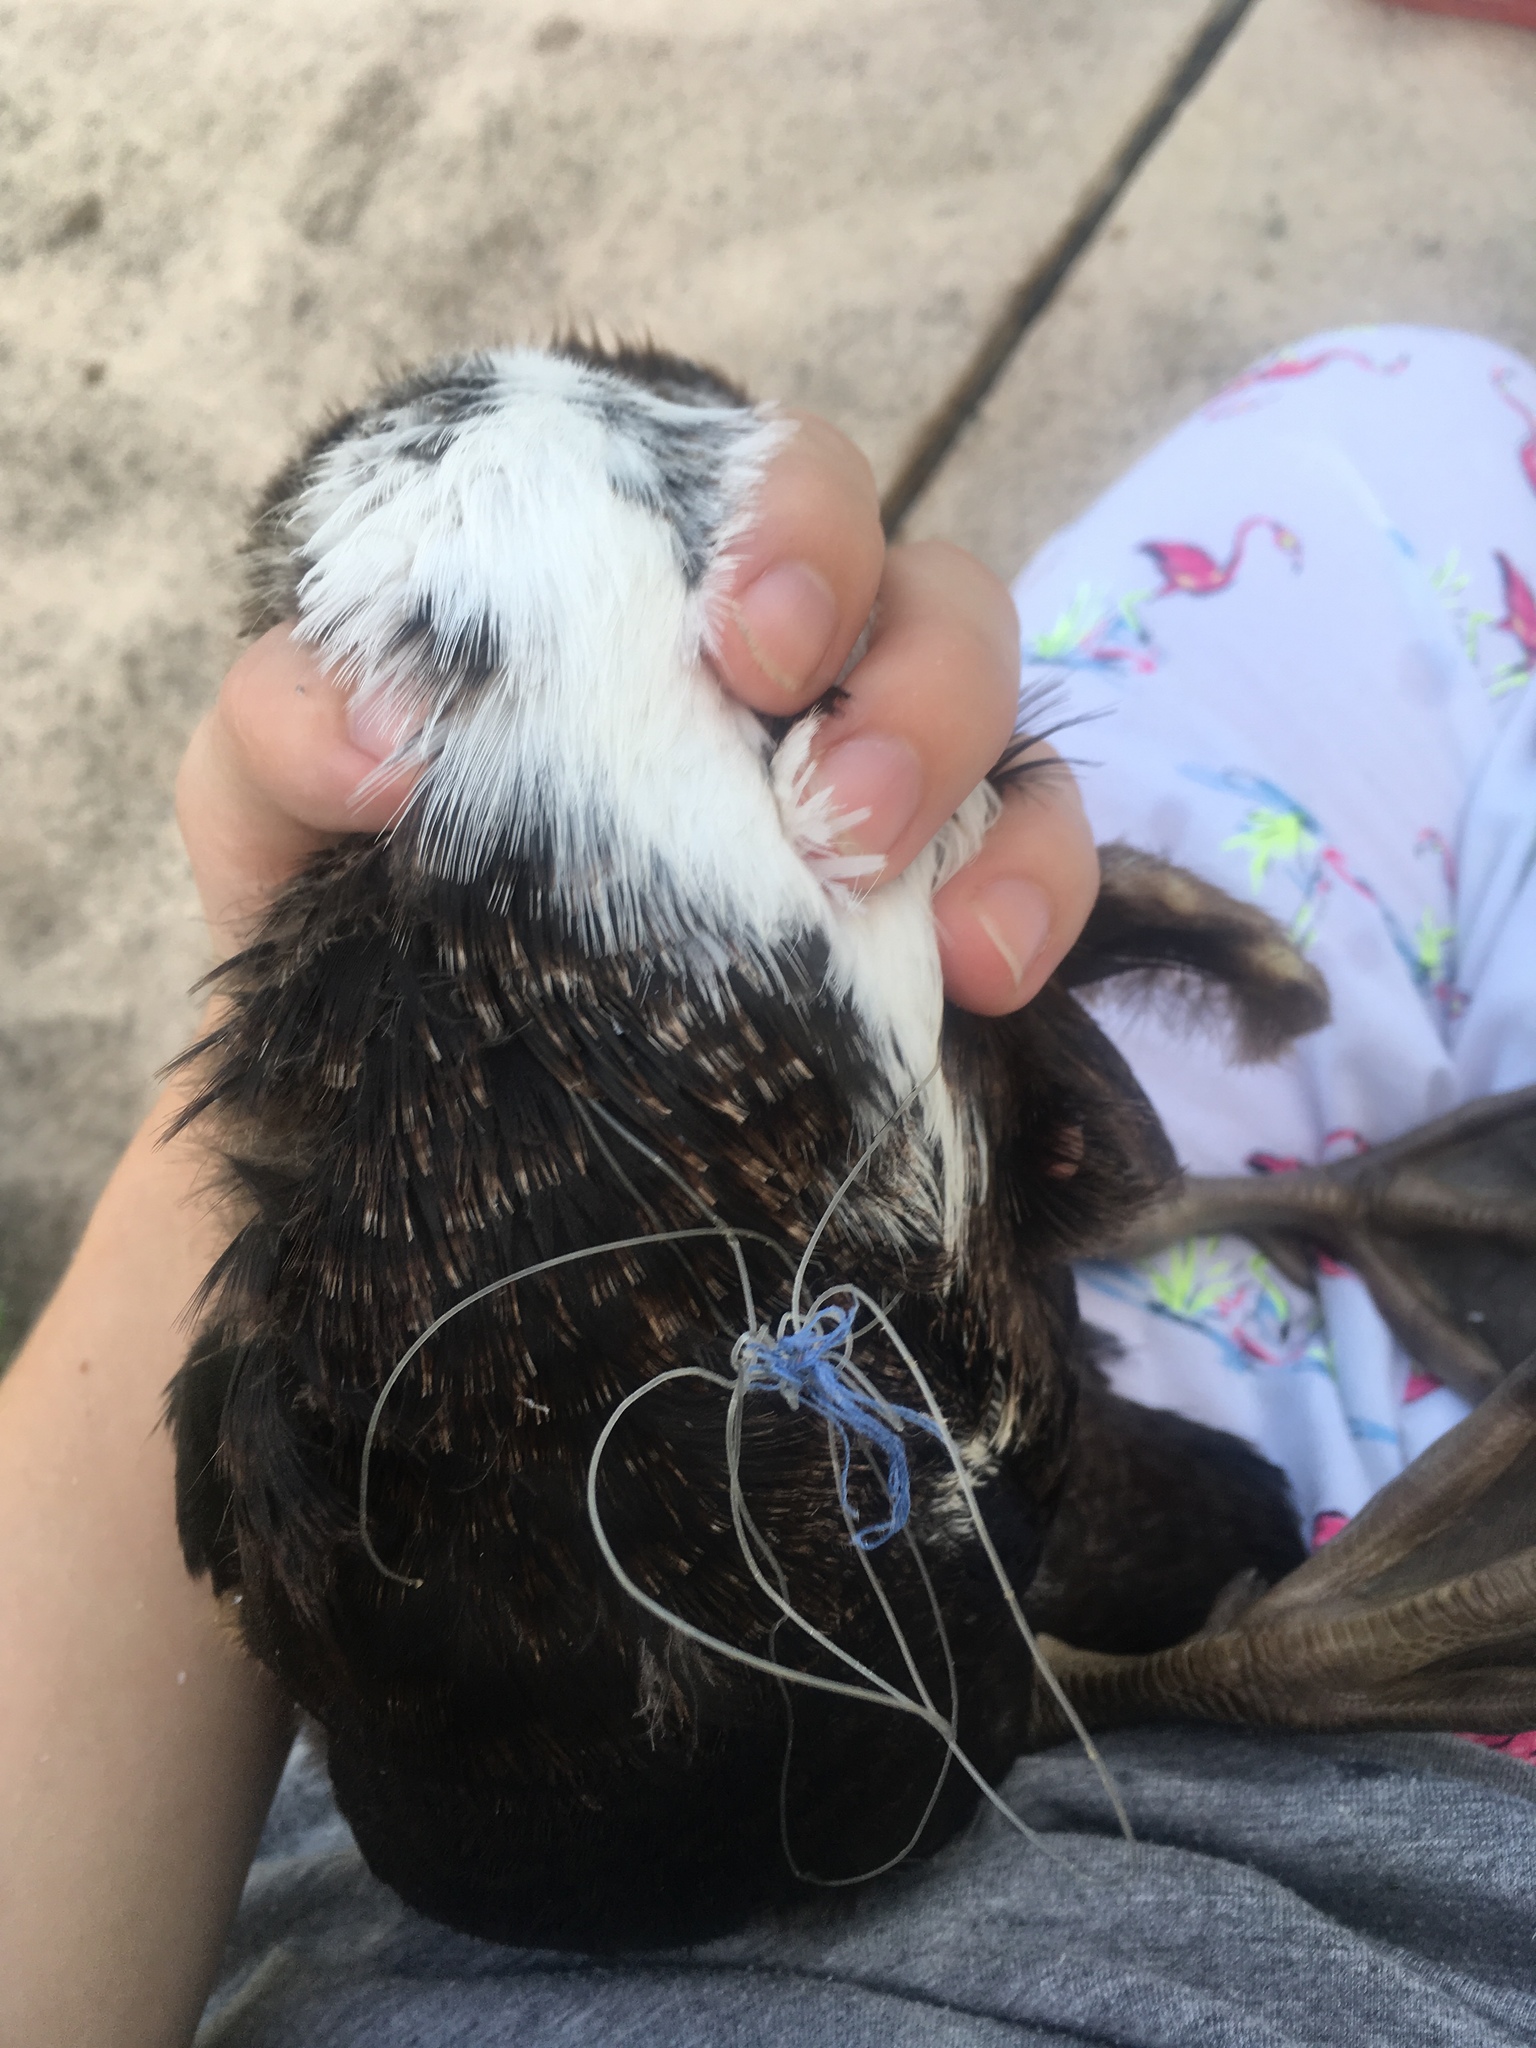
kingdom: Animalia
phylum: Chordata
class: Aves
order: Anseriformes
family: Anatidae
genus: Cairina
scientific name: Cairina moschata
